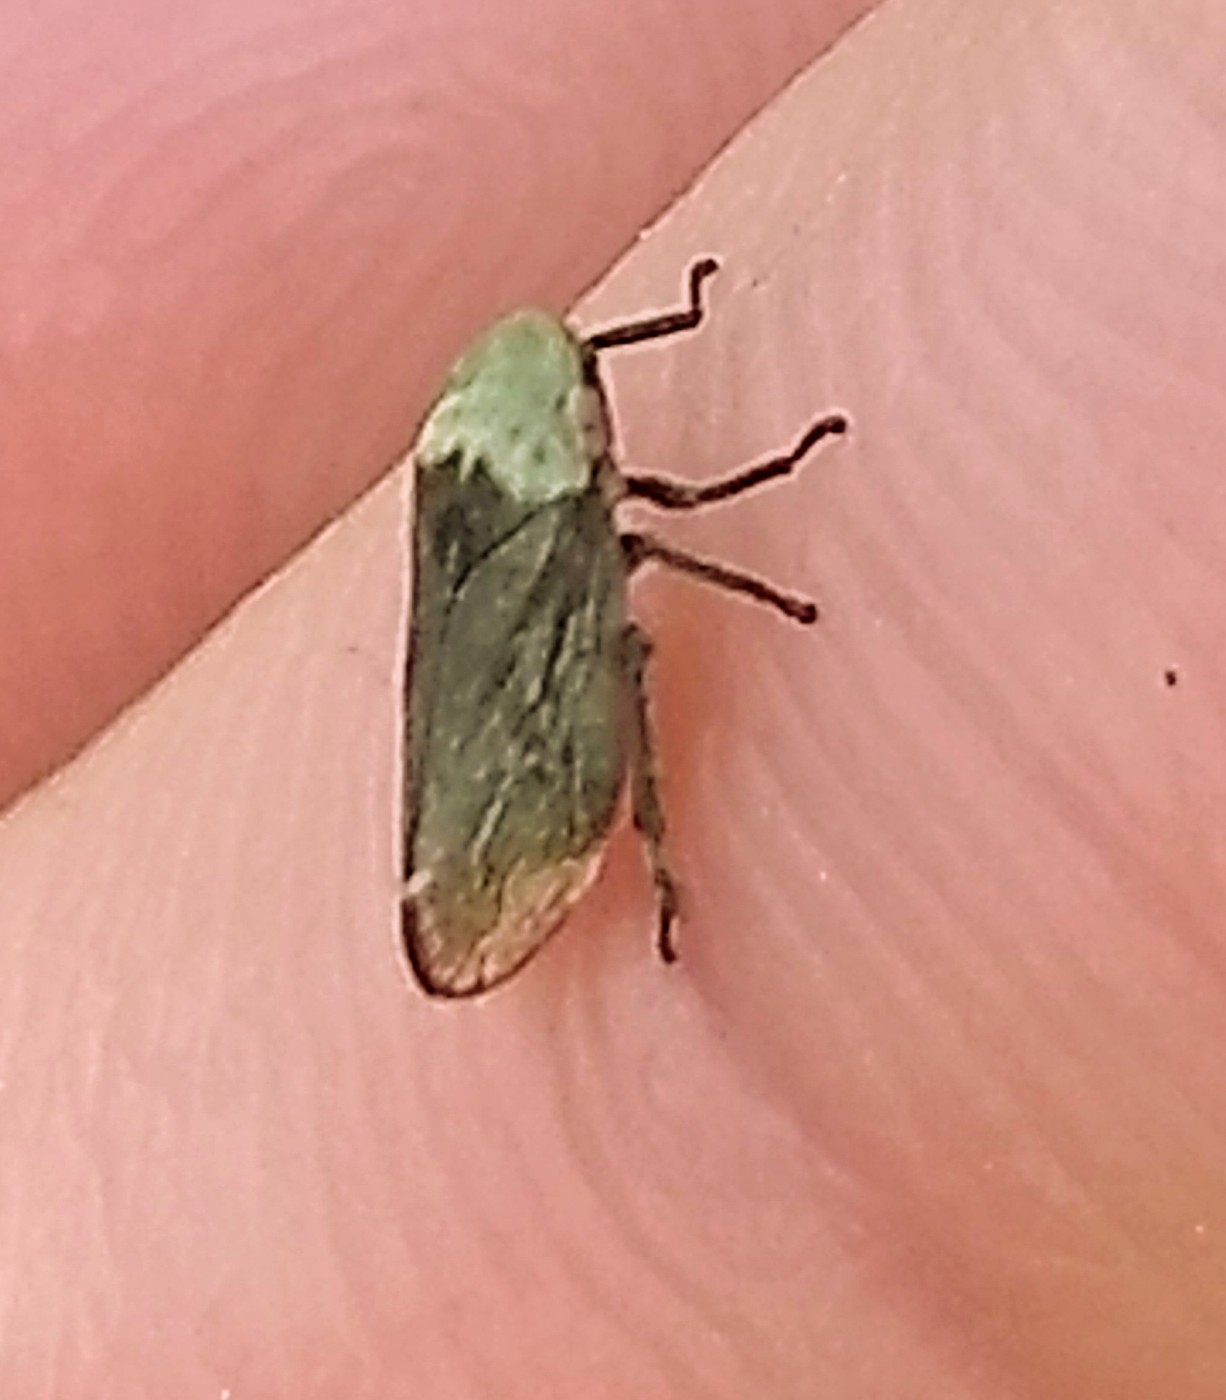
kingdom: Animalia
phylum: Arthropoda
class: Insecta
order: Hemiptera
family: Aphrophoridae
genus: Philaenus
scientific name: Philaenus spumarius
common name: Meadow spittlebug
